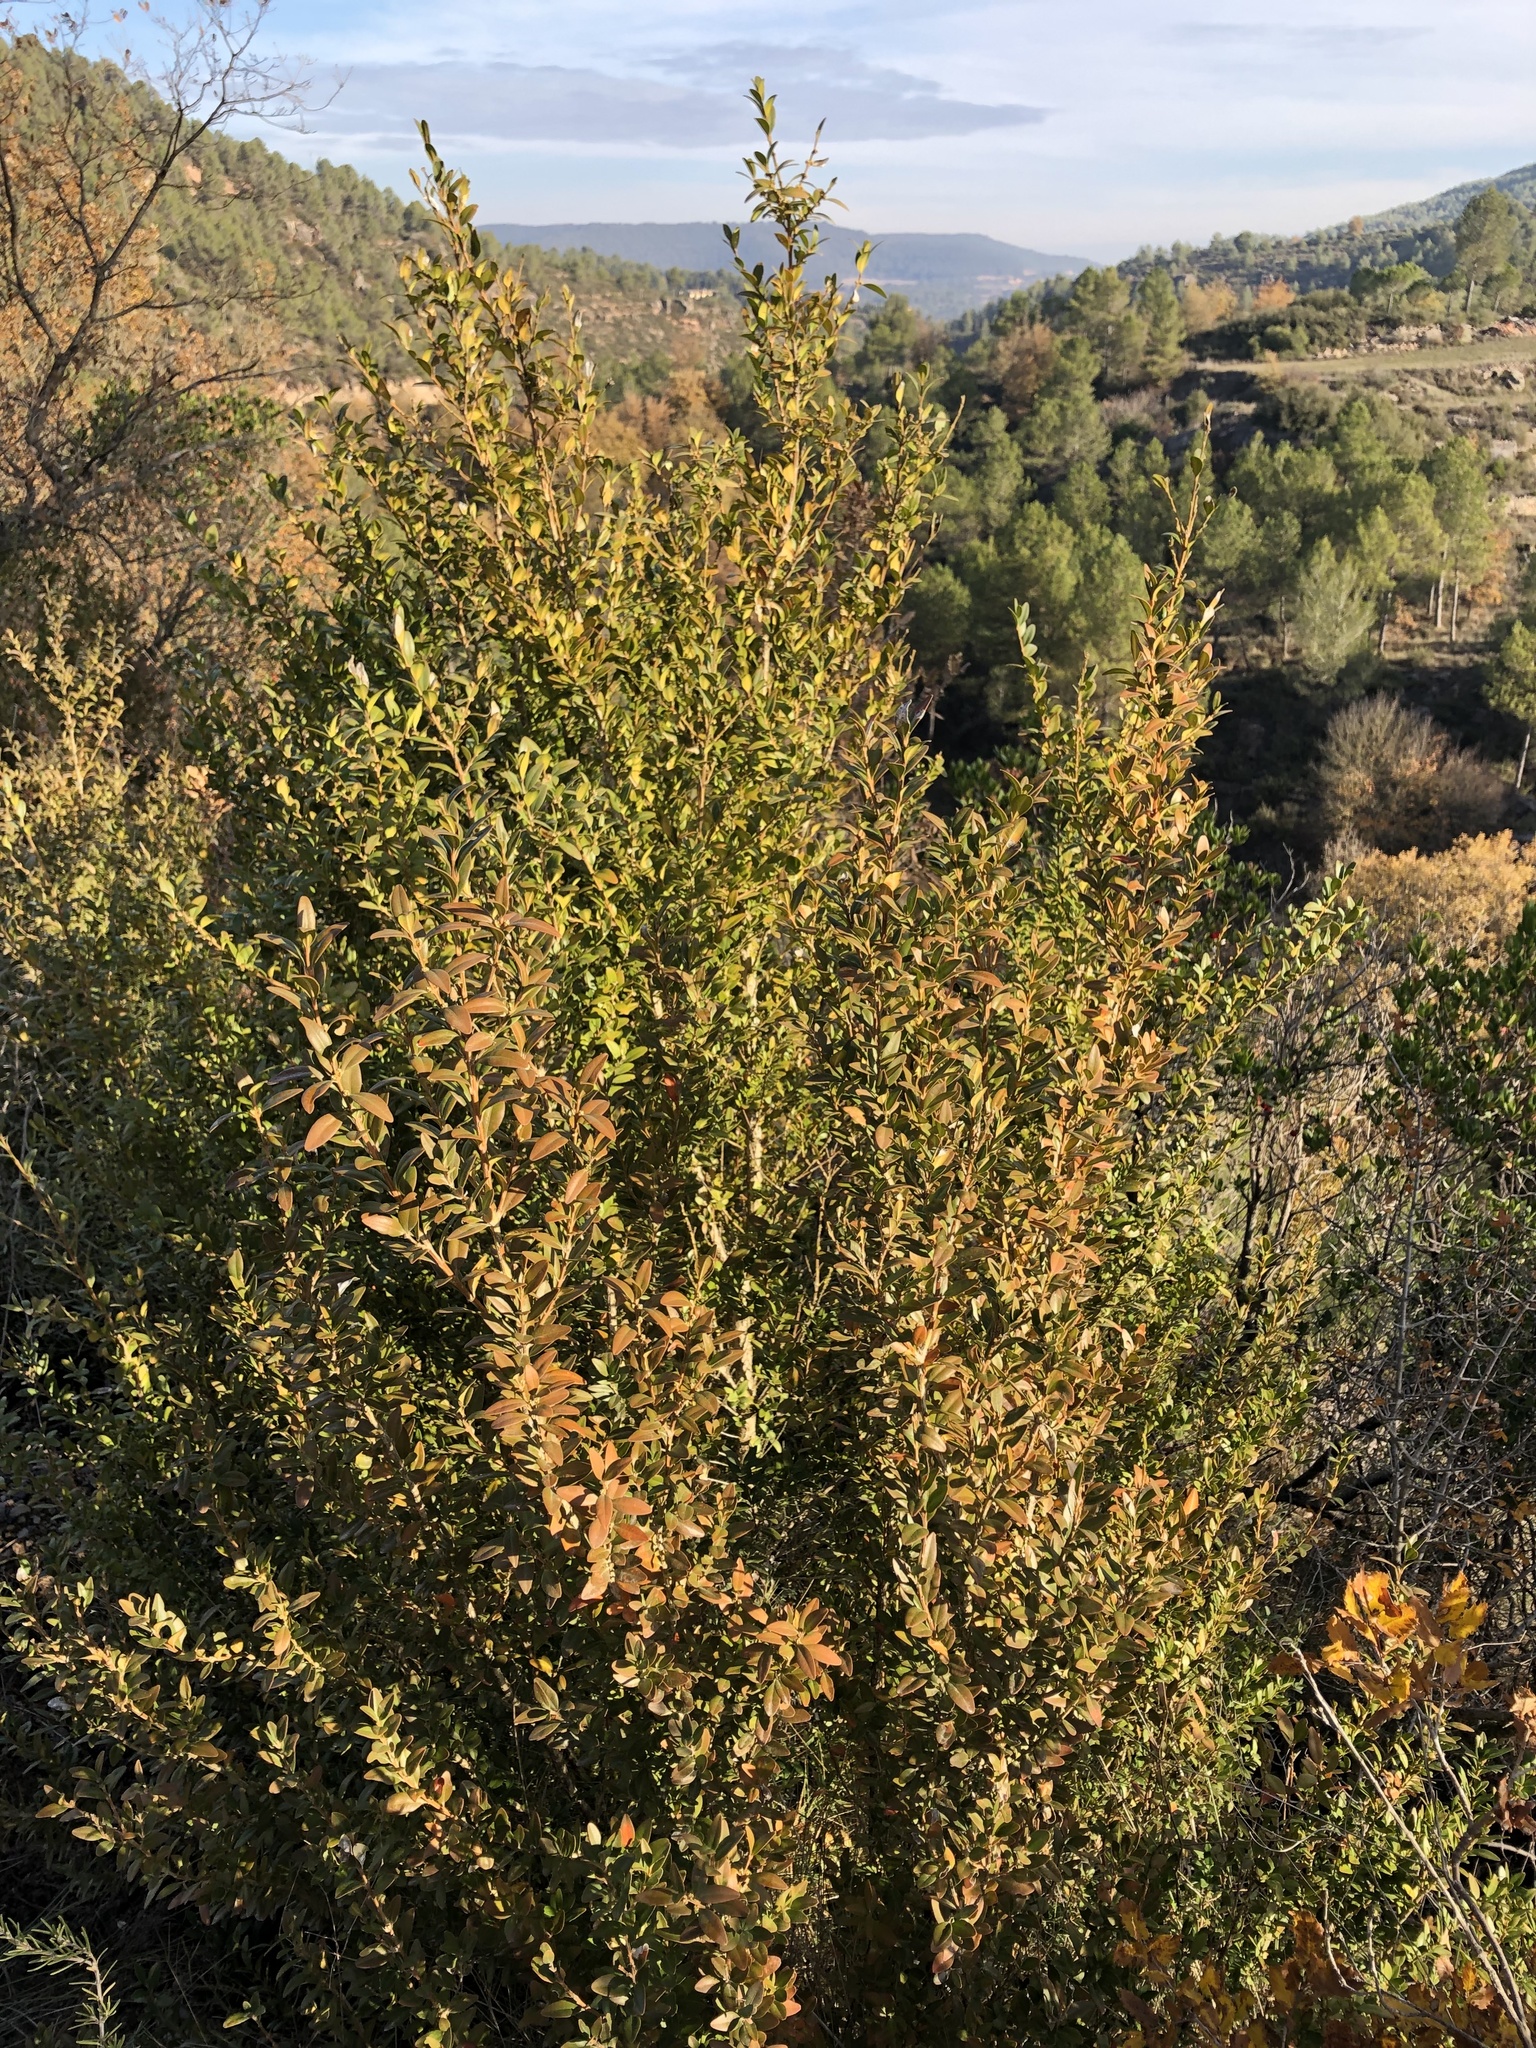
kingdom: Plantae
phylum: Tracheophyta
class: Magnoliopsida
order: Buxales
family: Buxaceae
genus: Buxus
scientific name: Buxus sempervirens
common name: Box
